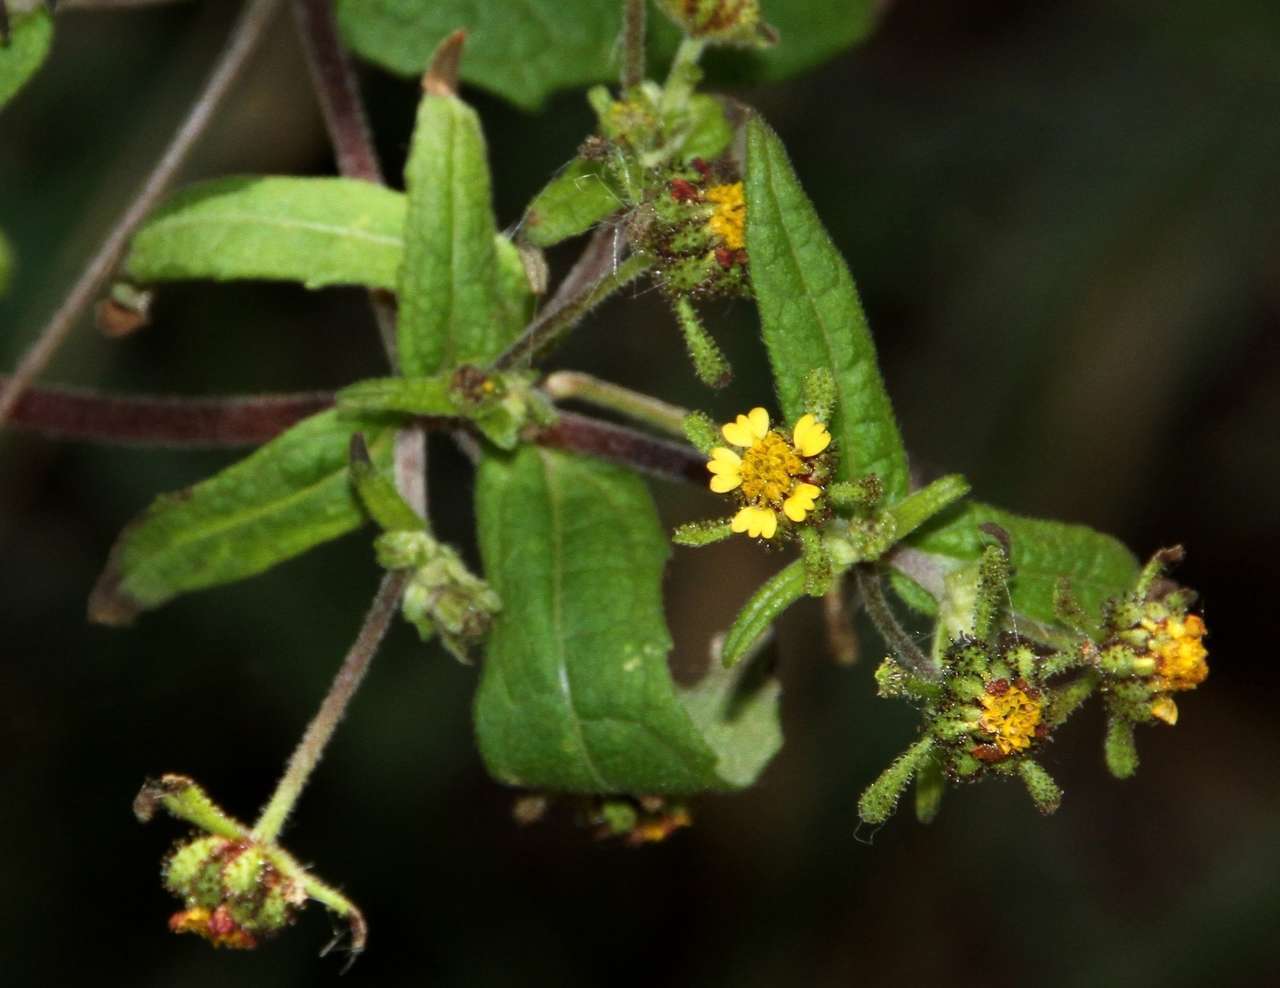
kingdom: Plantae
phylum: Tracheophyta
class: Magnoliopsida
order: Asterales
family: Asteraceae
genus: Sigesbeckia
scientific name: Sigesbeckia orientalis
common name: Eastern st paul's-wort
